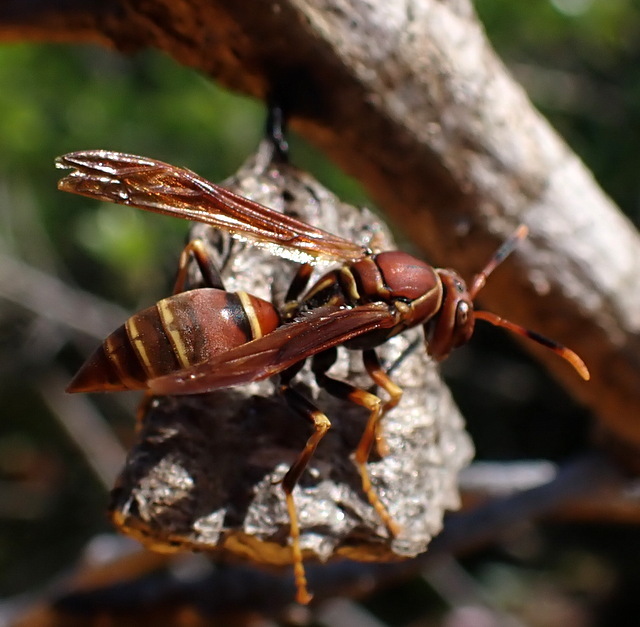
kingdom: Animalia
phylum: Arthropoda
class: Insecta
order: Hymenoptera
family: Eumenidae
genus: Polistes
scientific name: Polistes bahamensis
